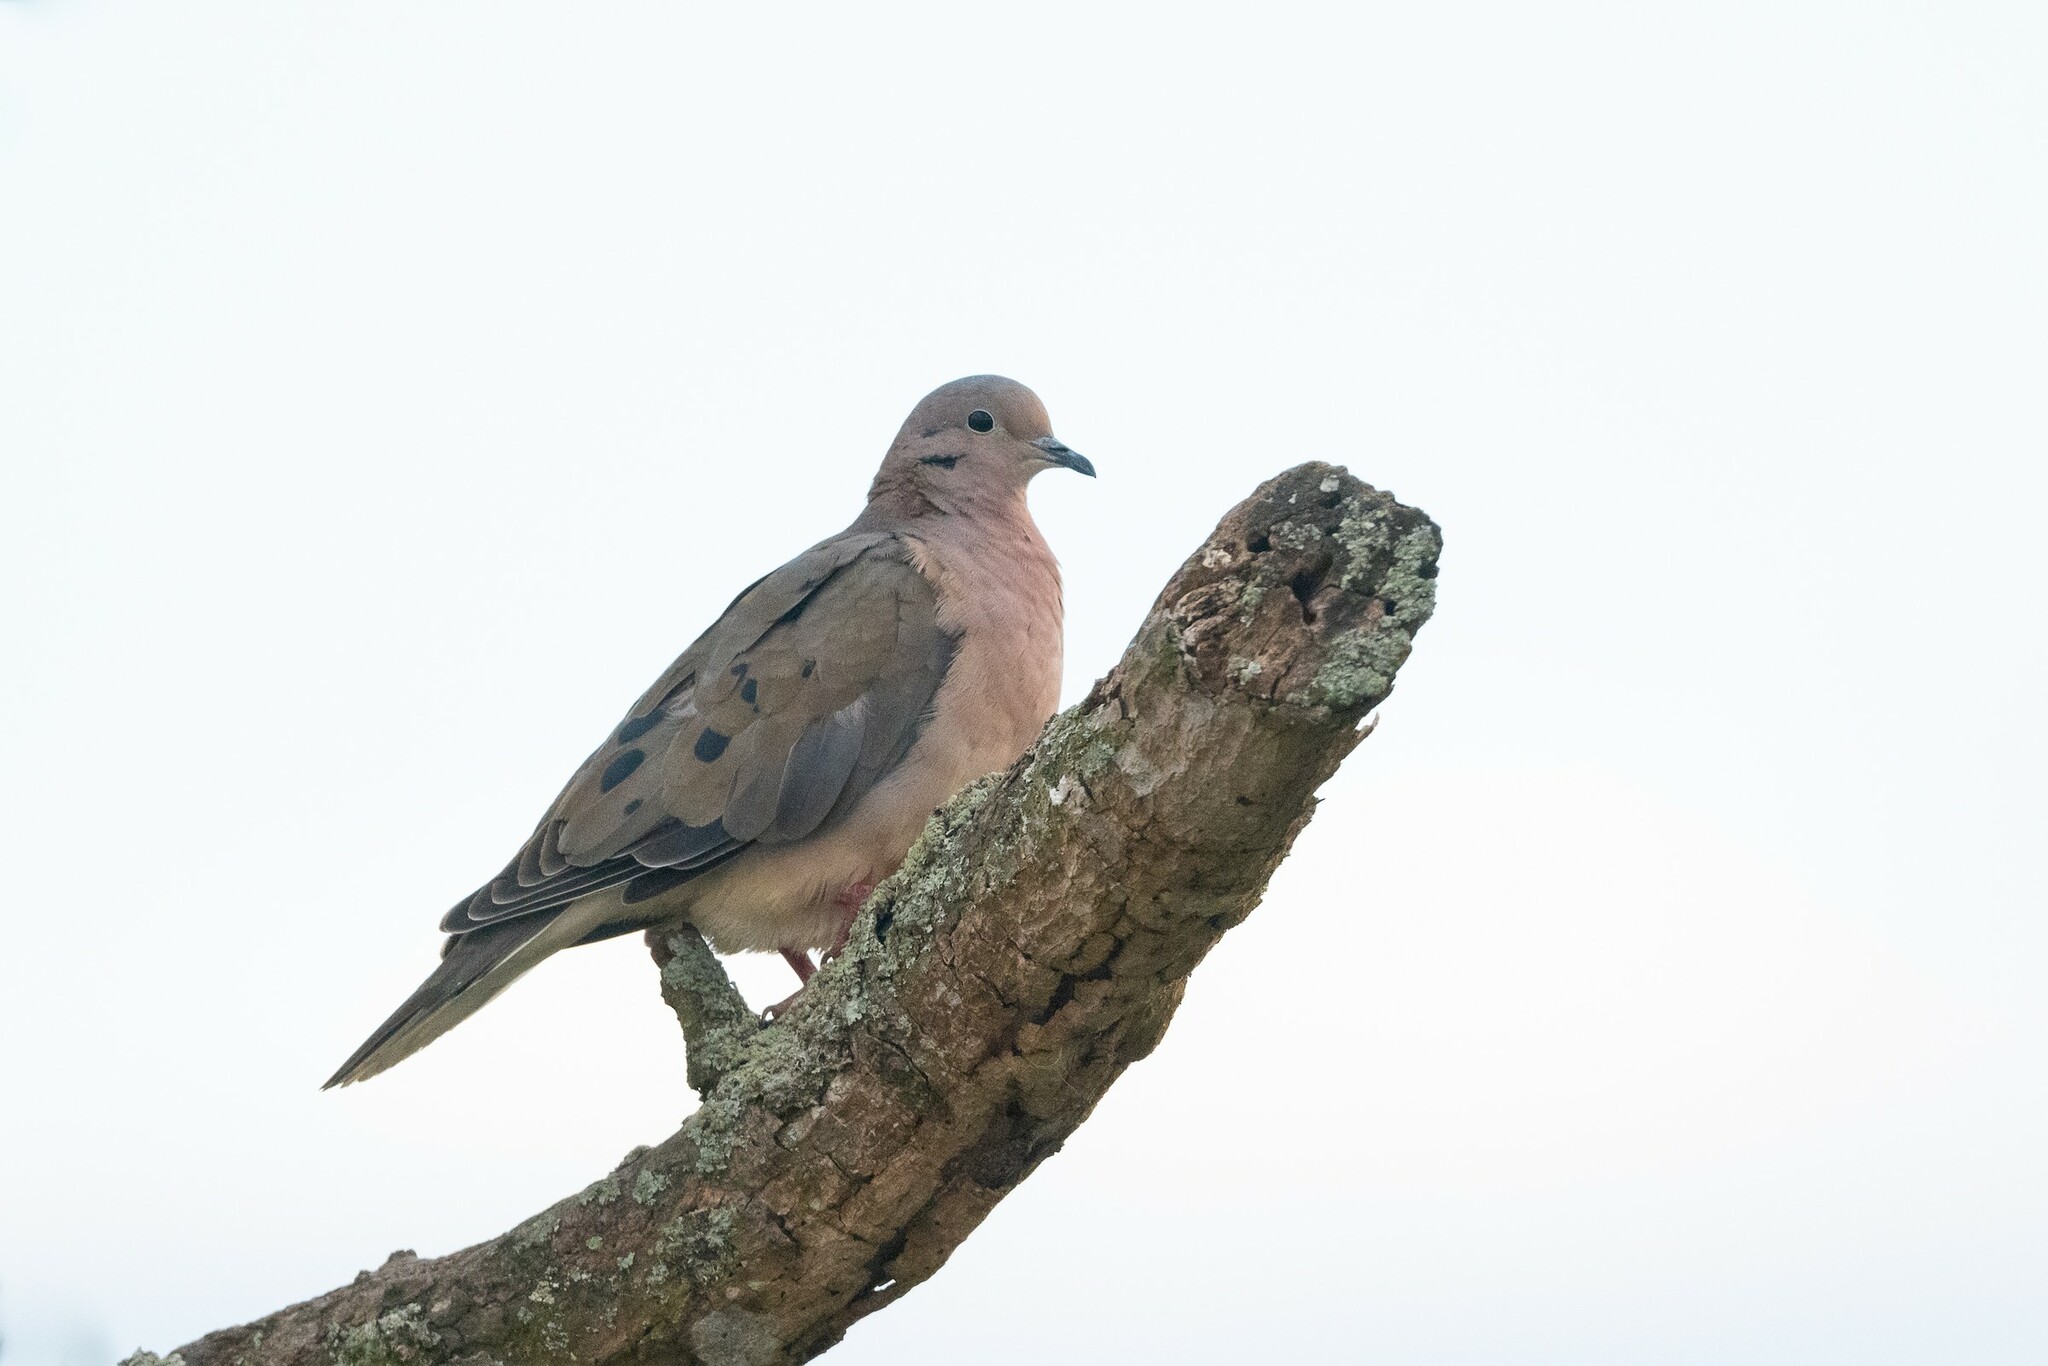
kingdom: Animalia
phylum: Chordata
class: Aves
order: Columbiformes
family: Columbidae
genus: Zenaida
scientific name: Zenaida auriculata
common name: Eared dove
